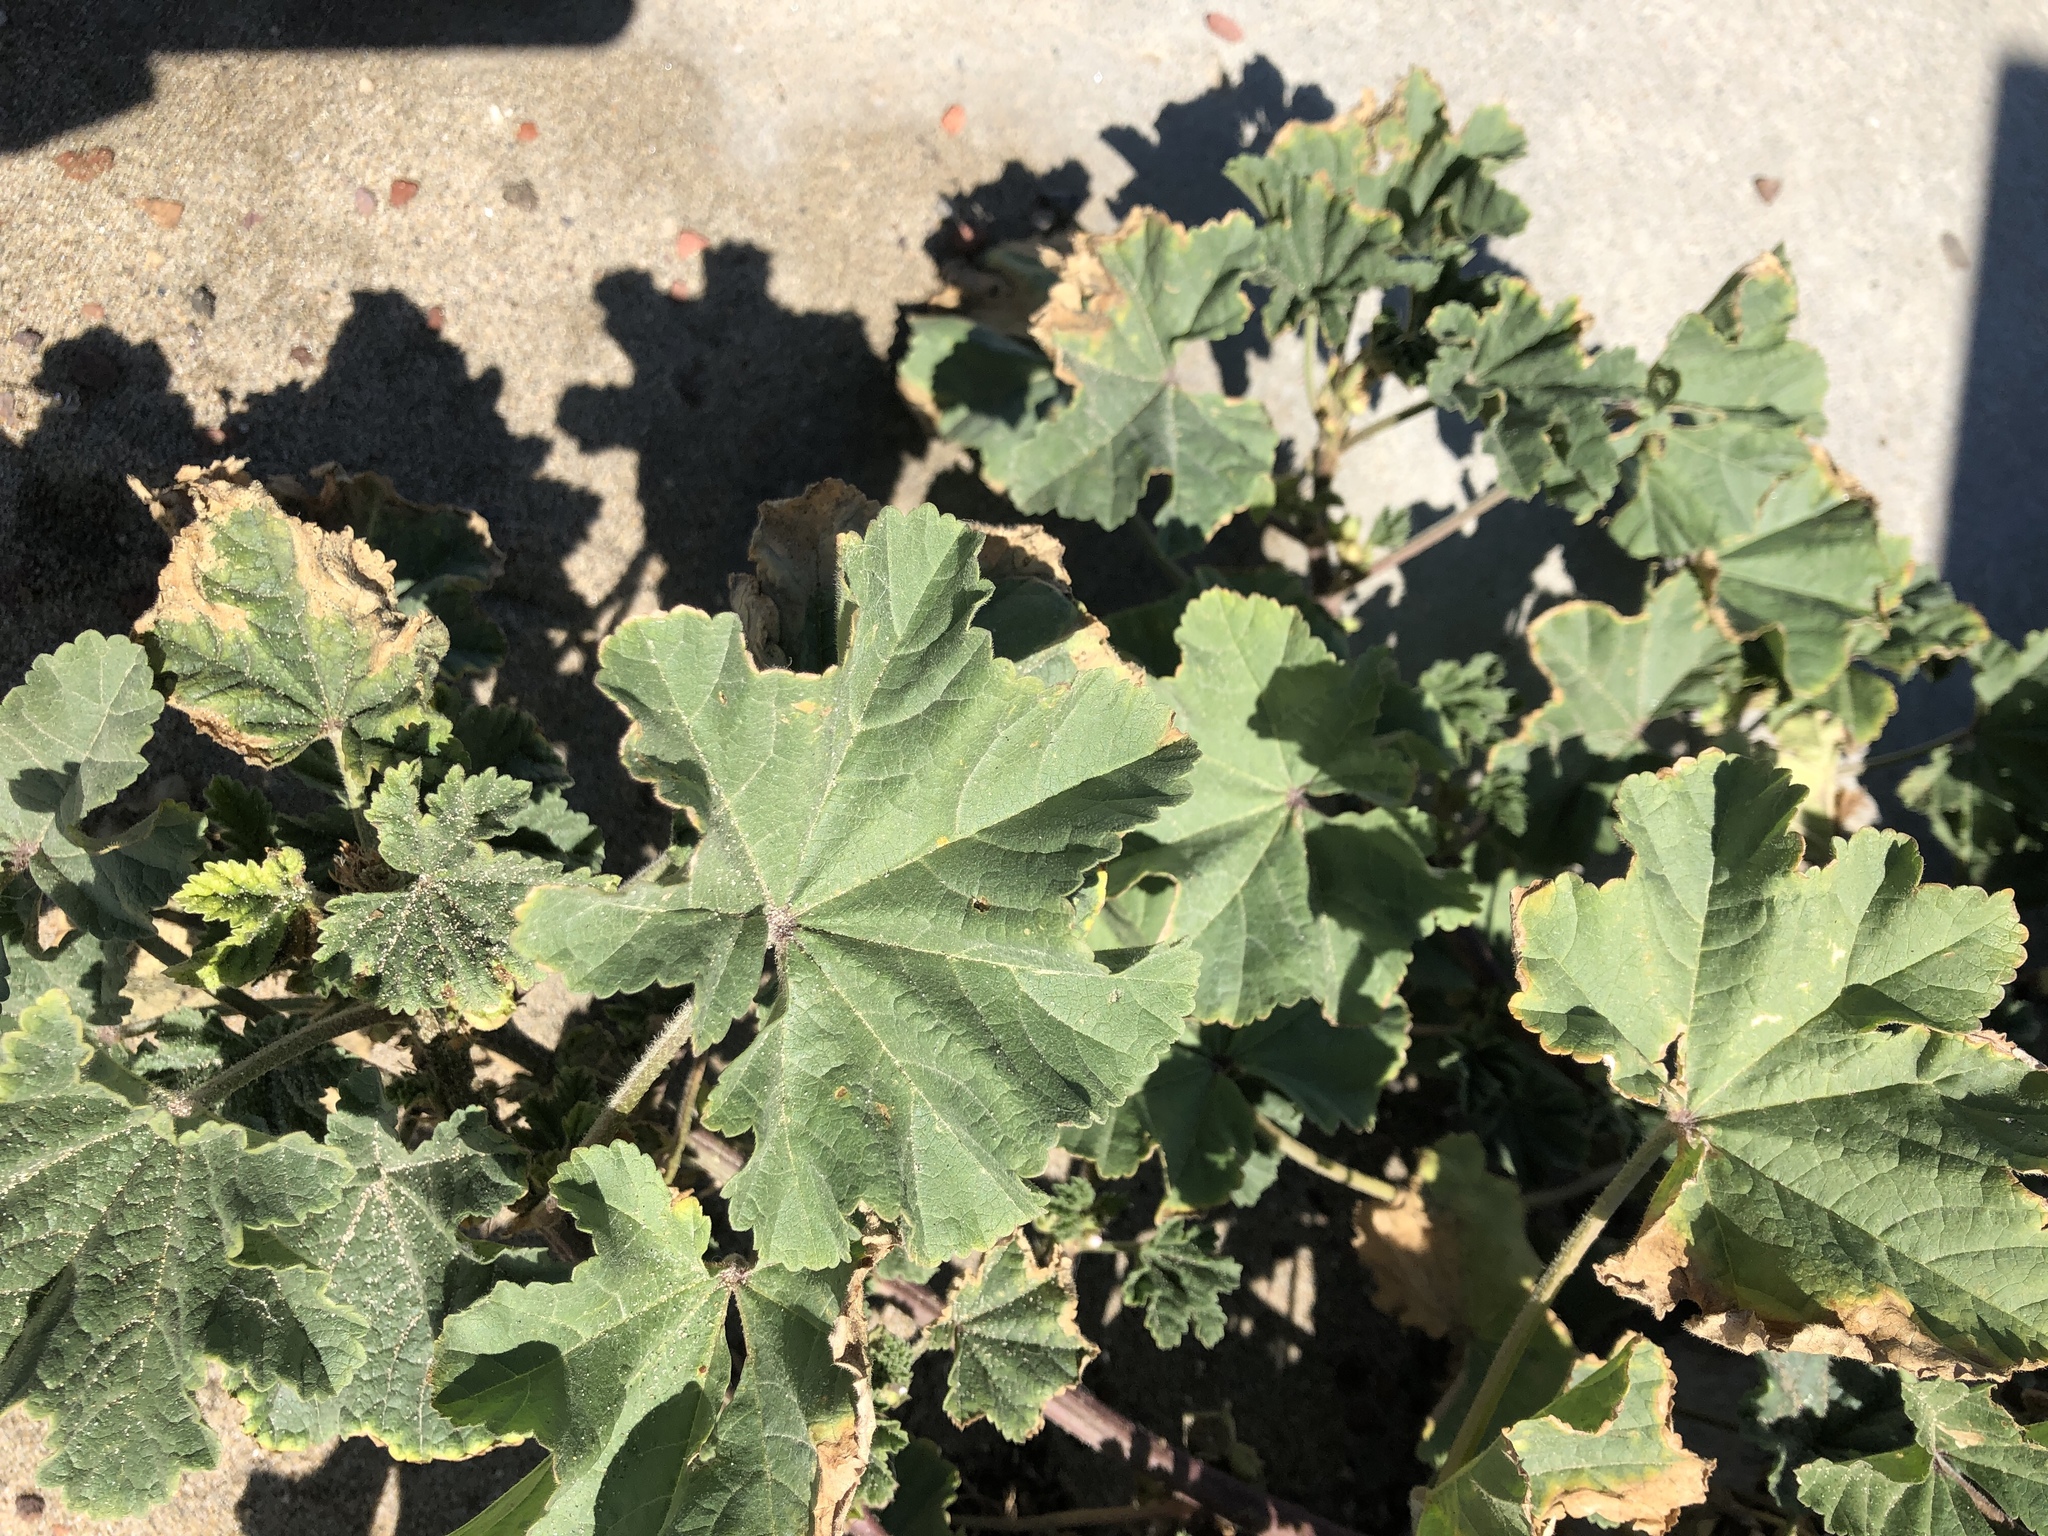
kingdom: Plantae
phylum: Tracheophyta
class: Magnoliopsida
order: Malvales
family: Malvaceae
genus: Malva
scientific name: Malva
